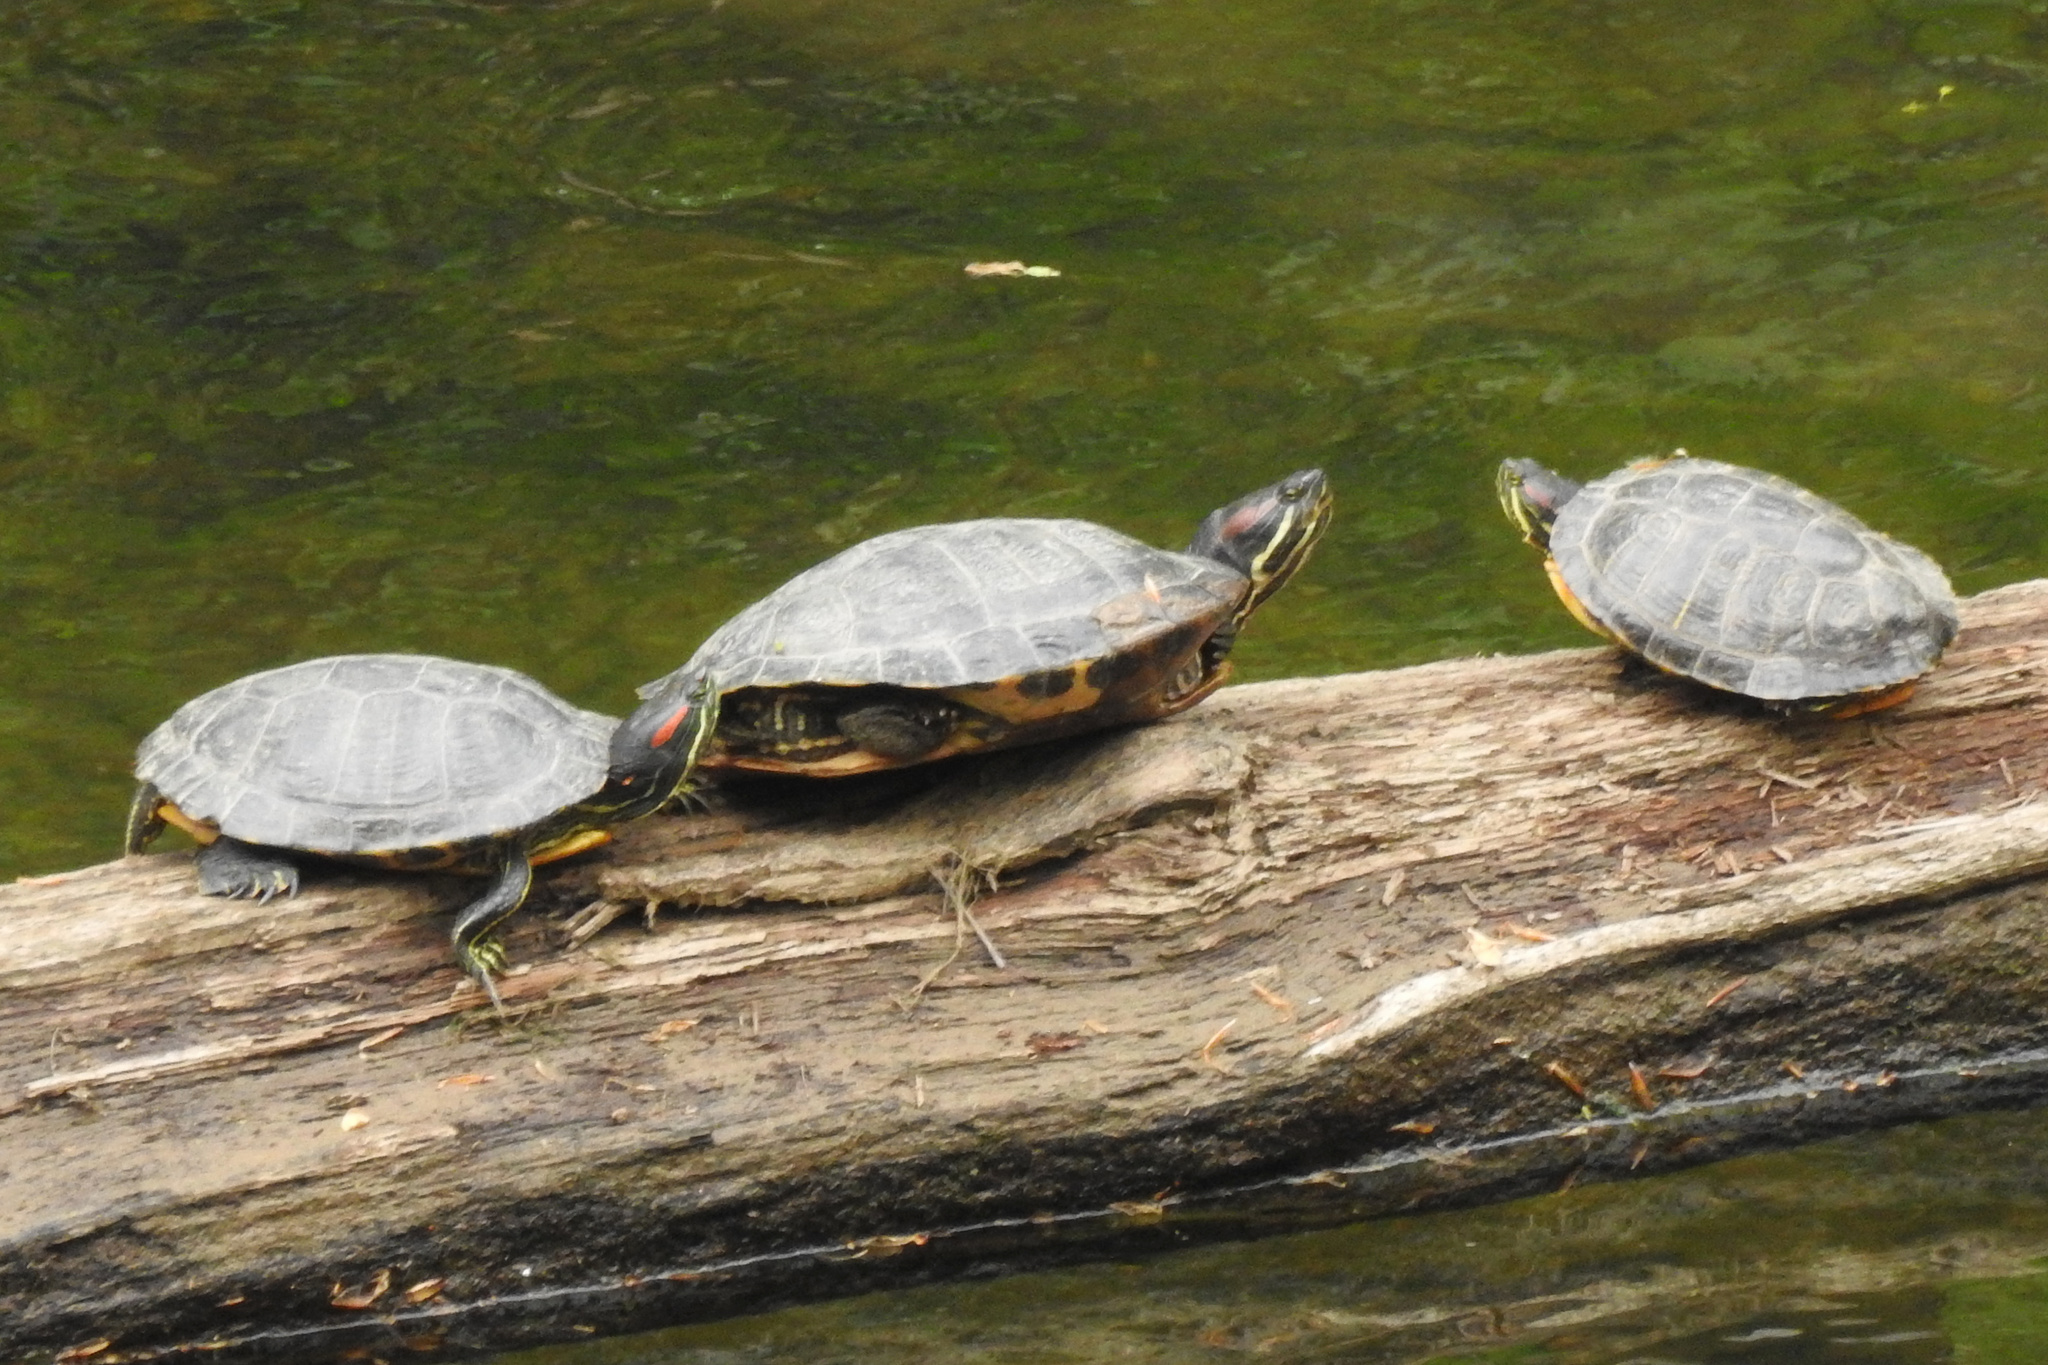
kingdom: Animalia
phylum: Chordata
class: Testudines
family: Emydidae
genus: Trachemys
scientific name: Trachemys scripta
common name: Slider
